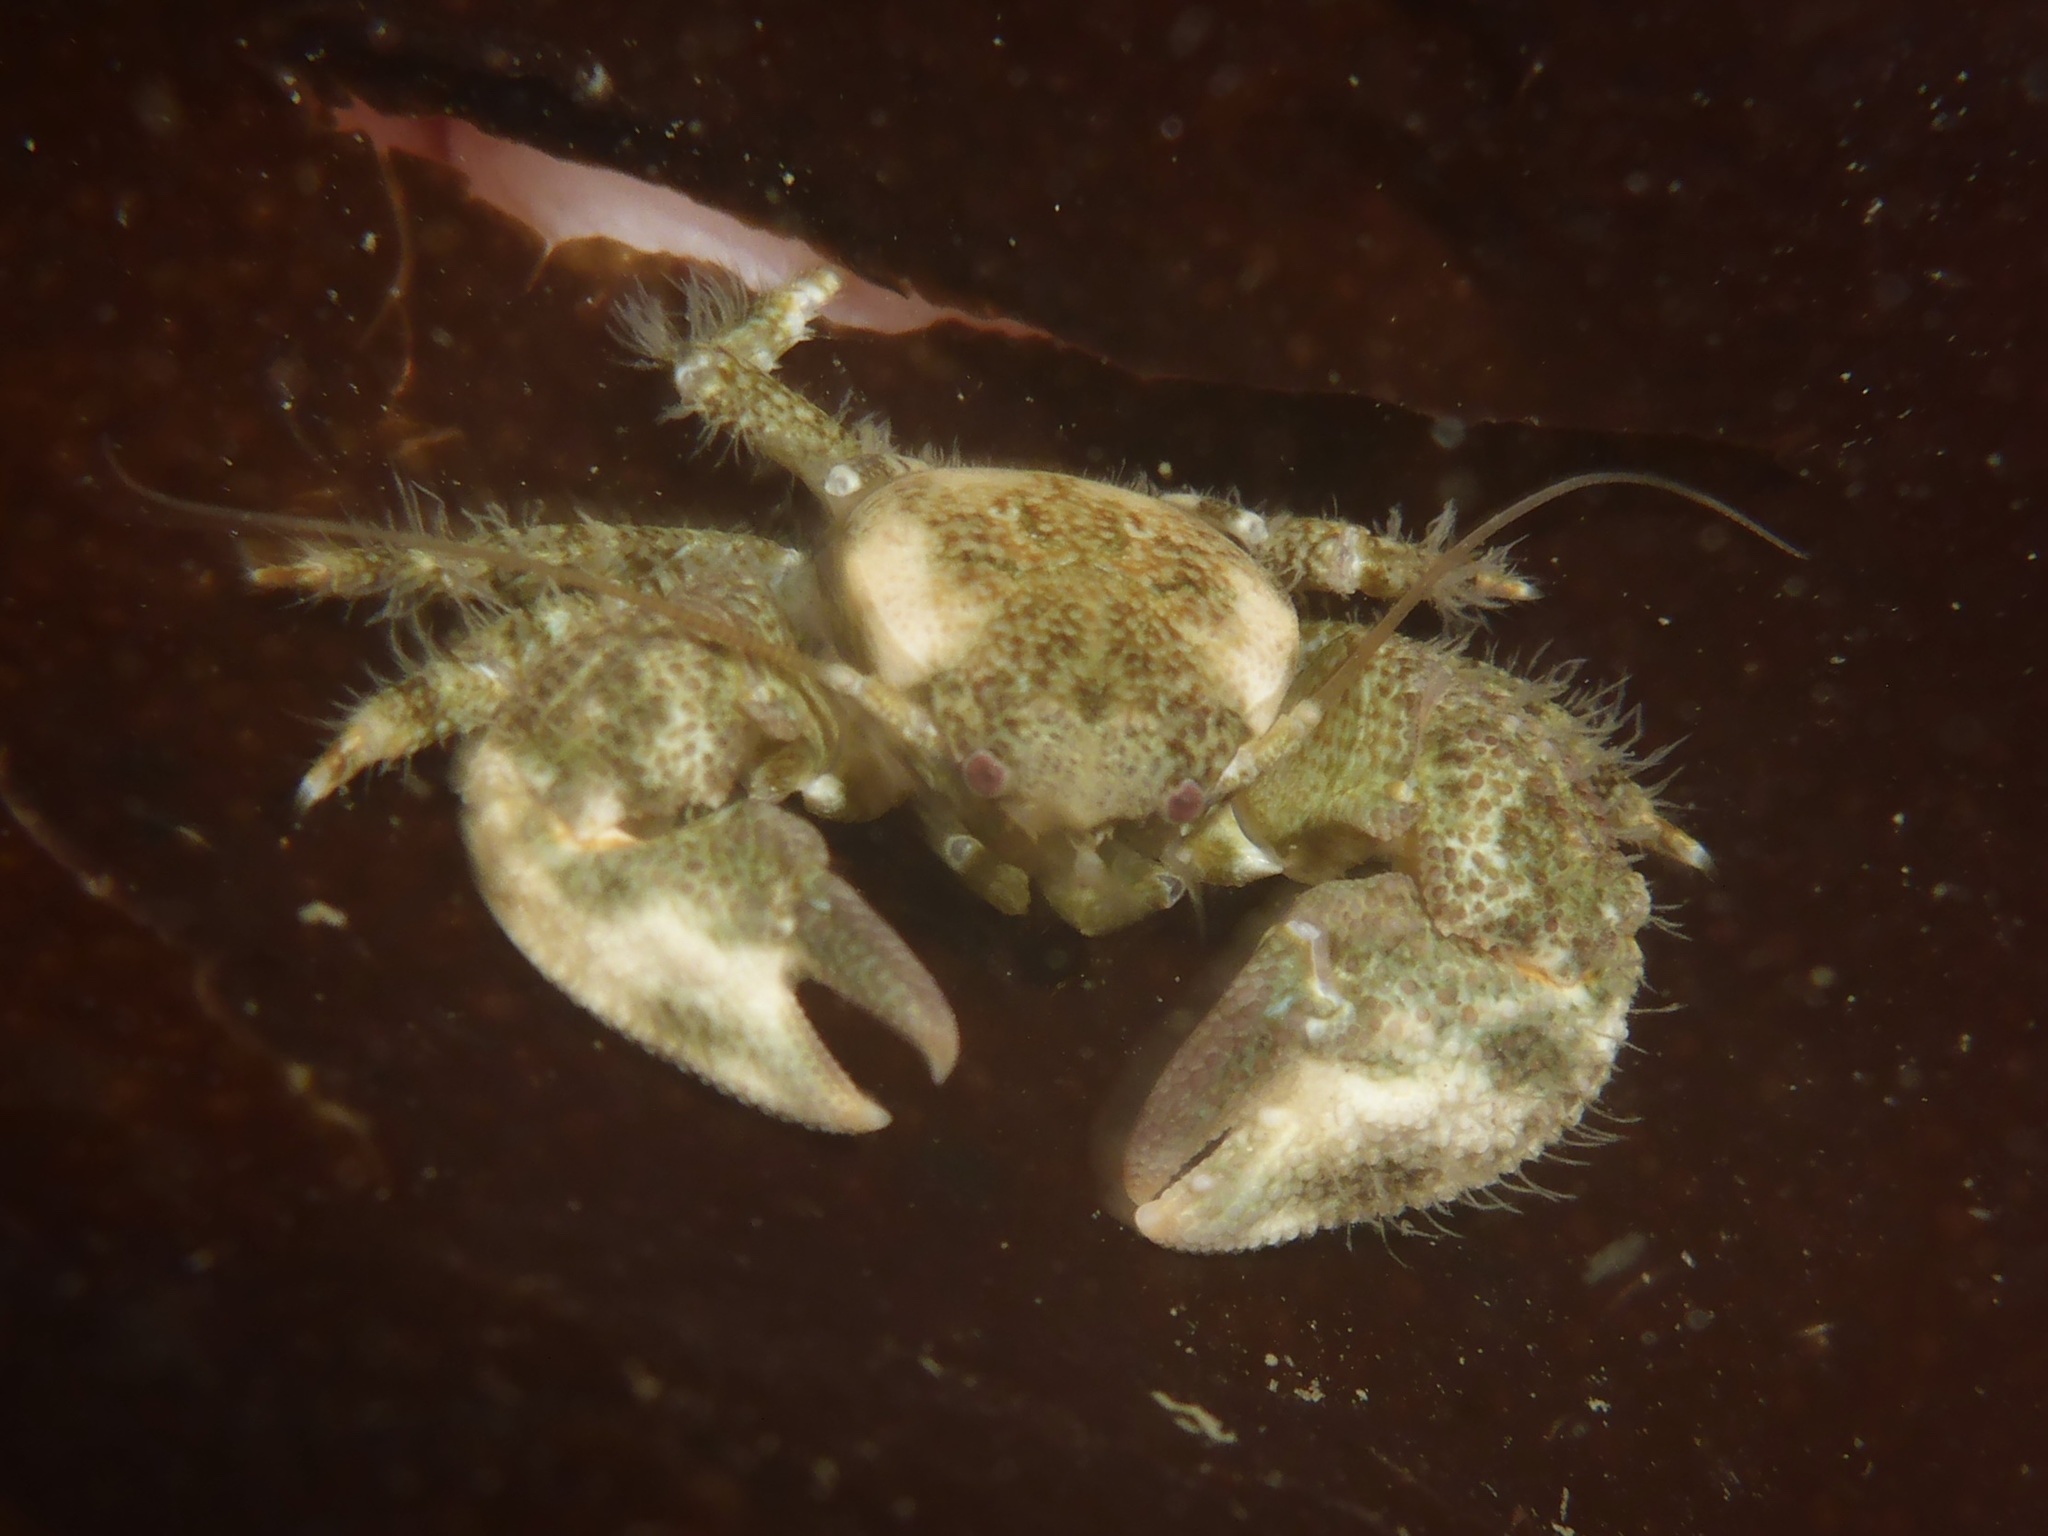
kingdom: Animalia
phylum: Arthropoda
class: Malacostraca
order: Decapoda
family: Porcellanidae
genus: Pachycheles
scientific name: Pachycheles rudis
